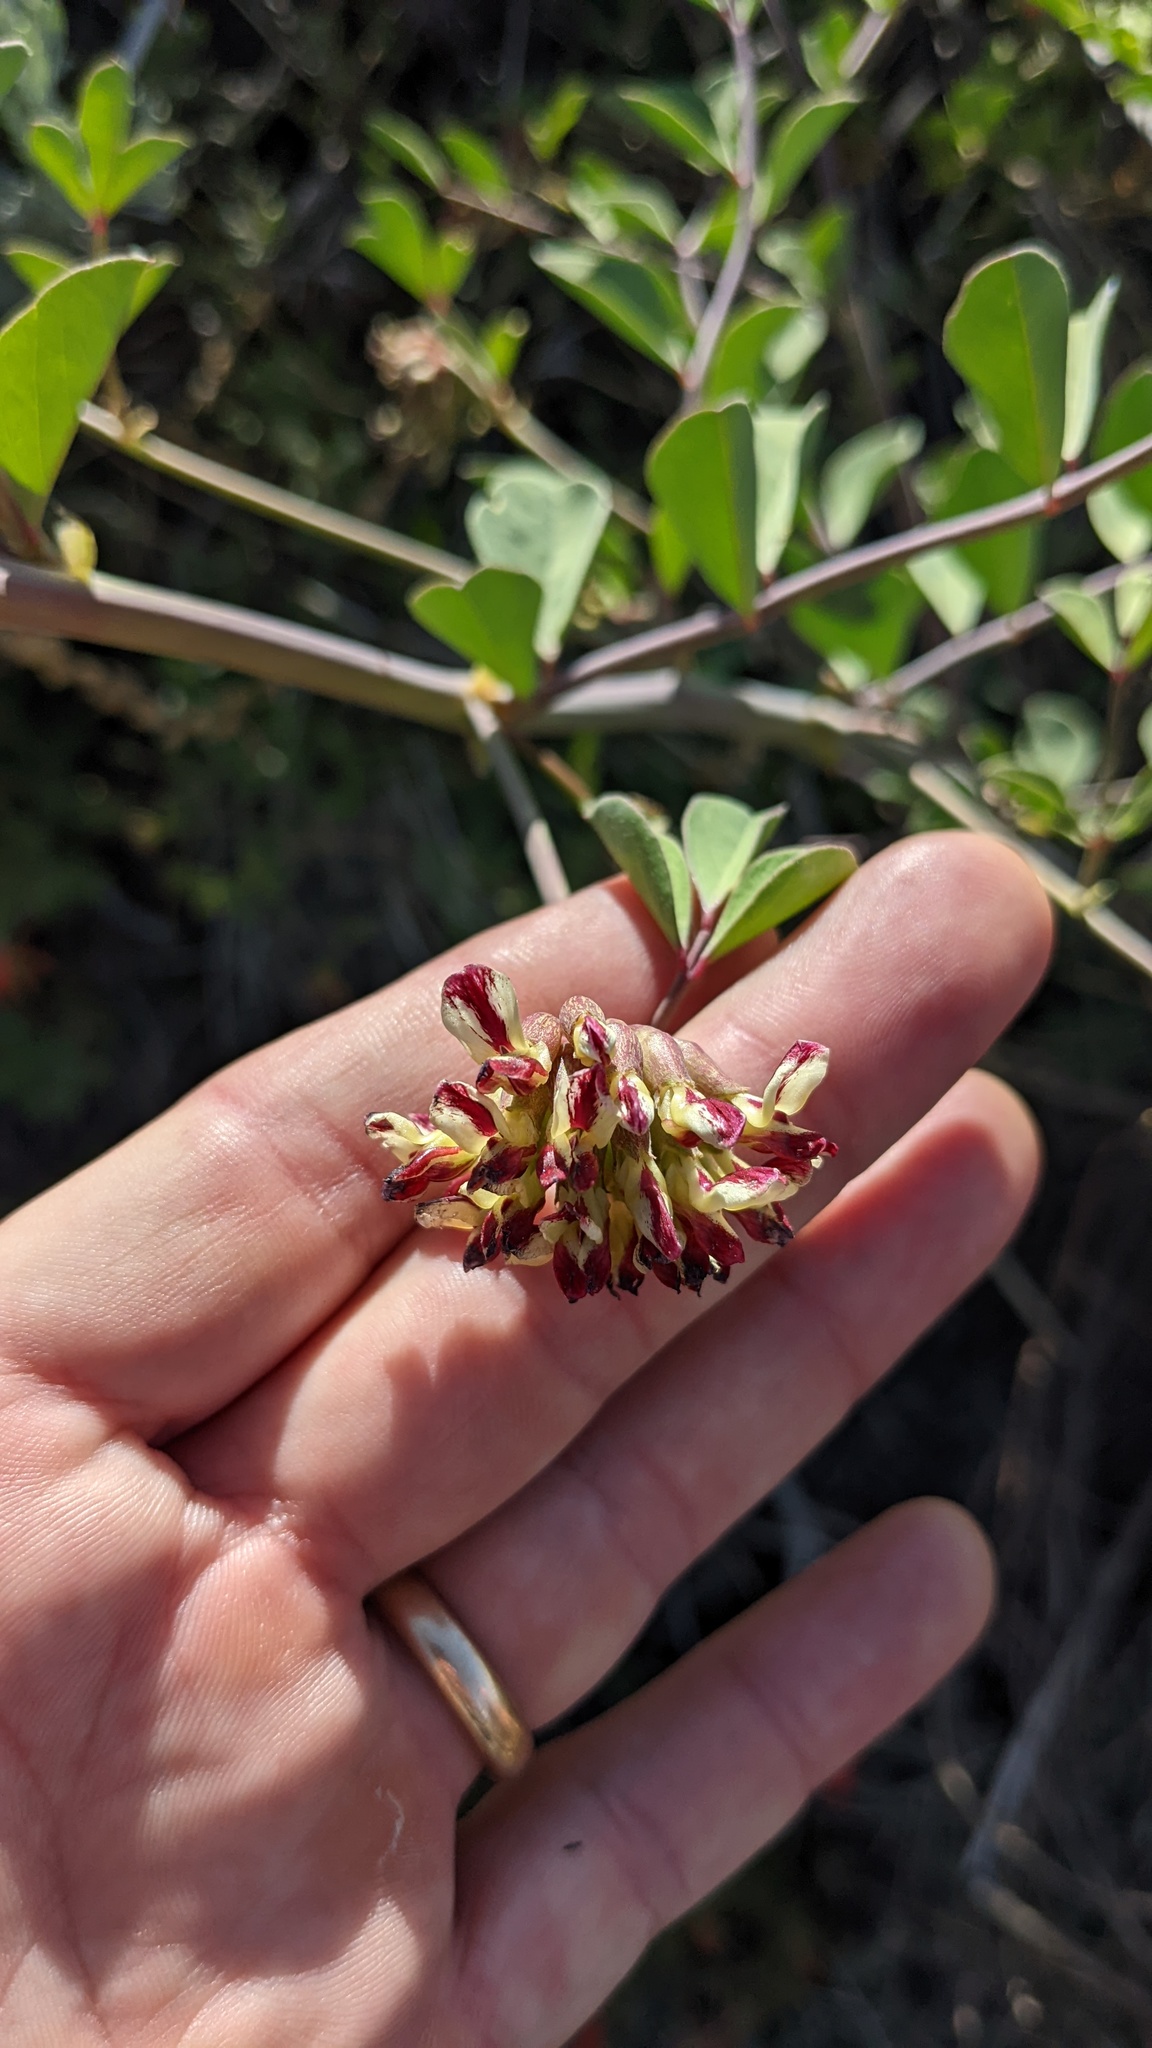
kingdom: Plantae
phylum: Tracheophyta
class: Magnoliopsida
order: Fabales
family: Fabaceae
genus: Hosackia
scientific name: Hosackia crassifolia
